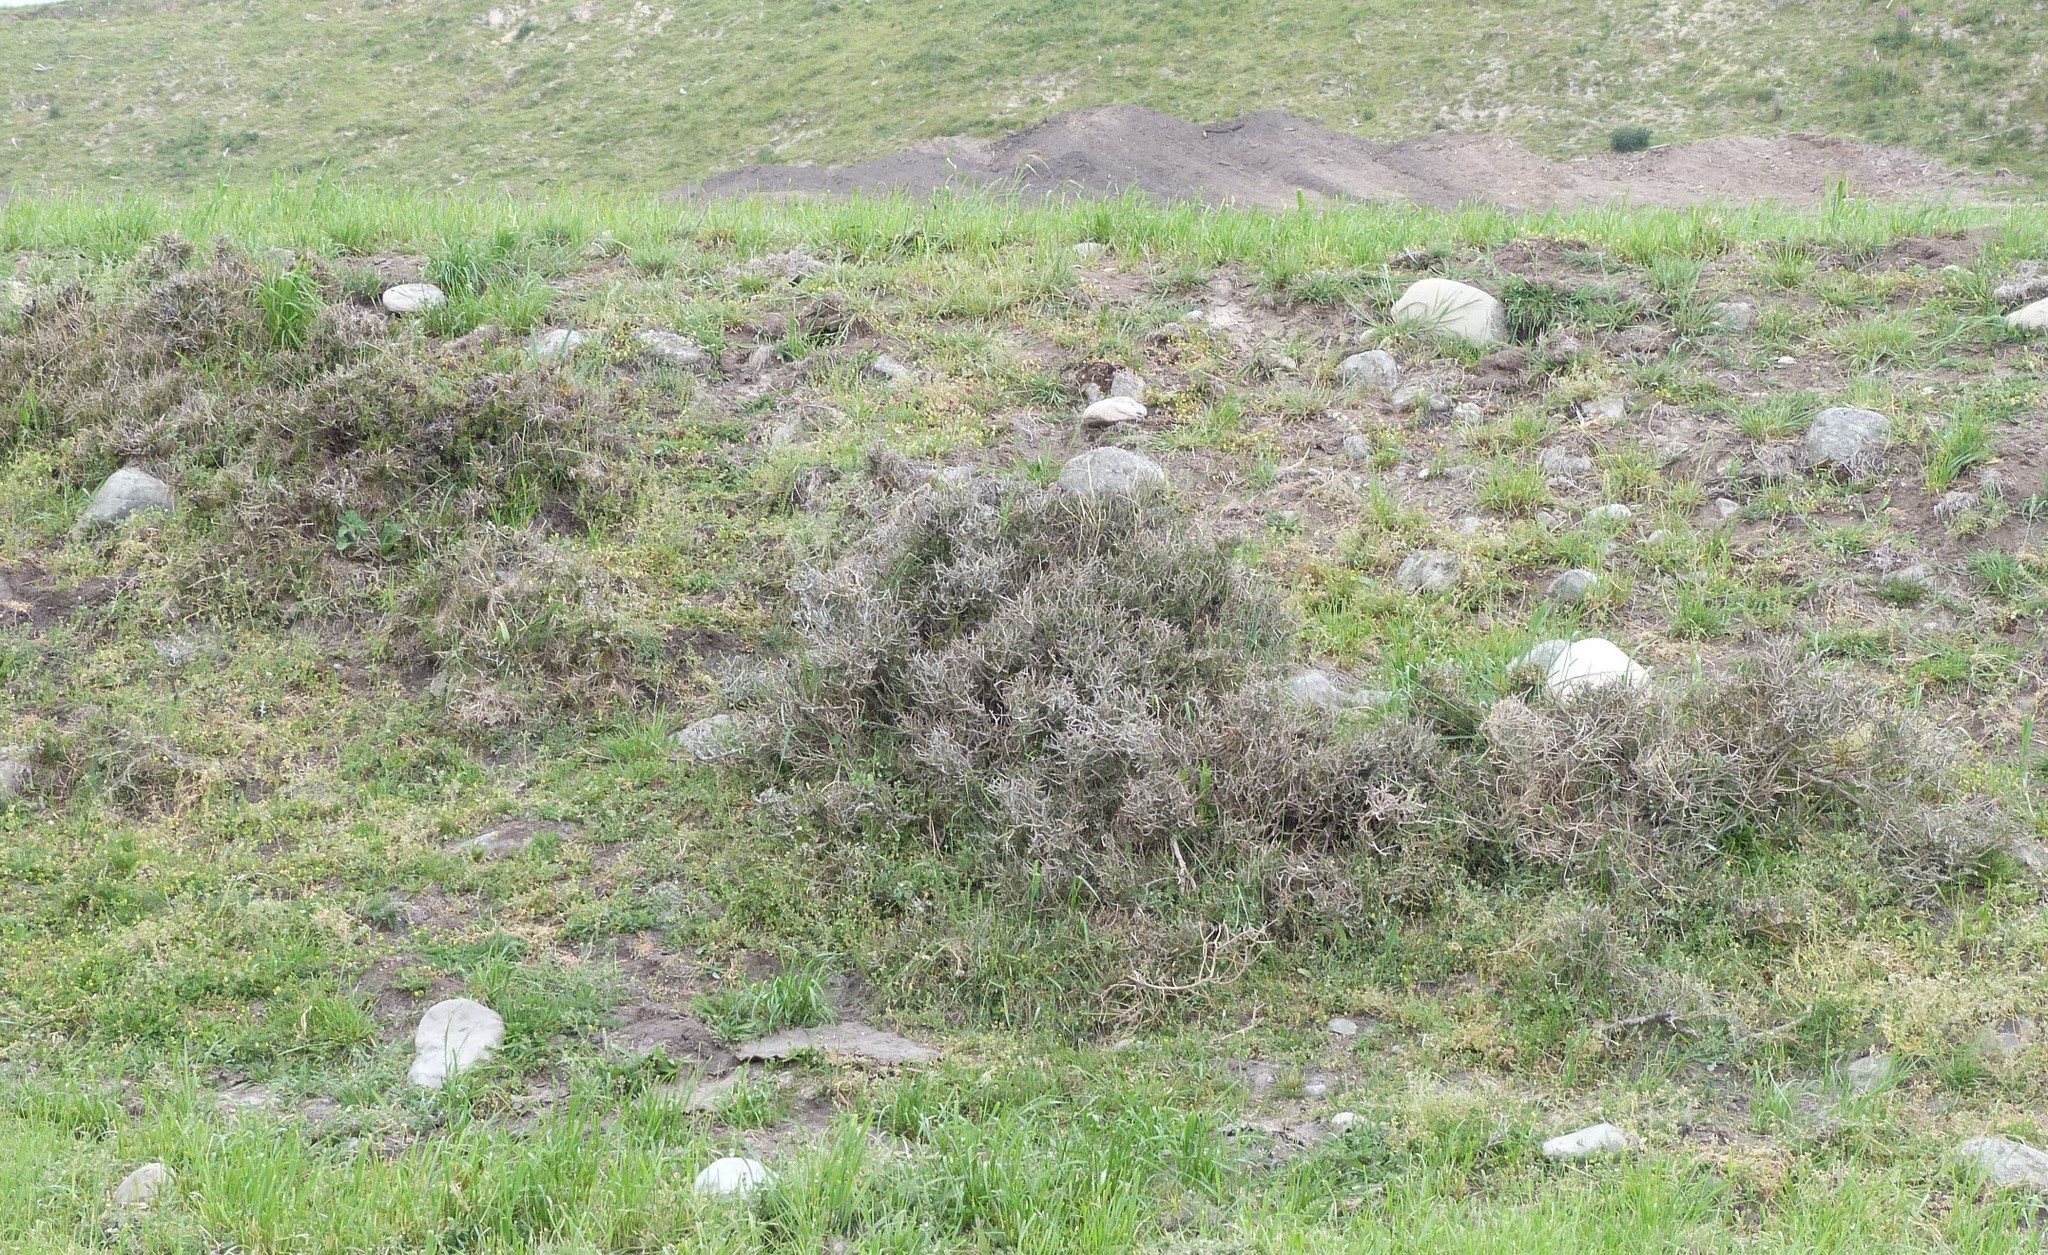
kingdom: Plantae
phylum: Tracheophyta
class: Magnoliopsida
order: Malpighiales
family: Violaceae
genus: Melicytus
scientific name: Melicytus alpinus
